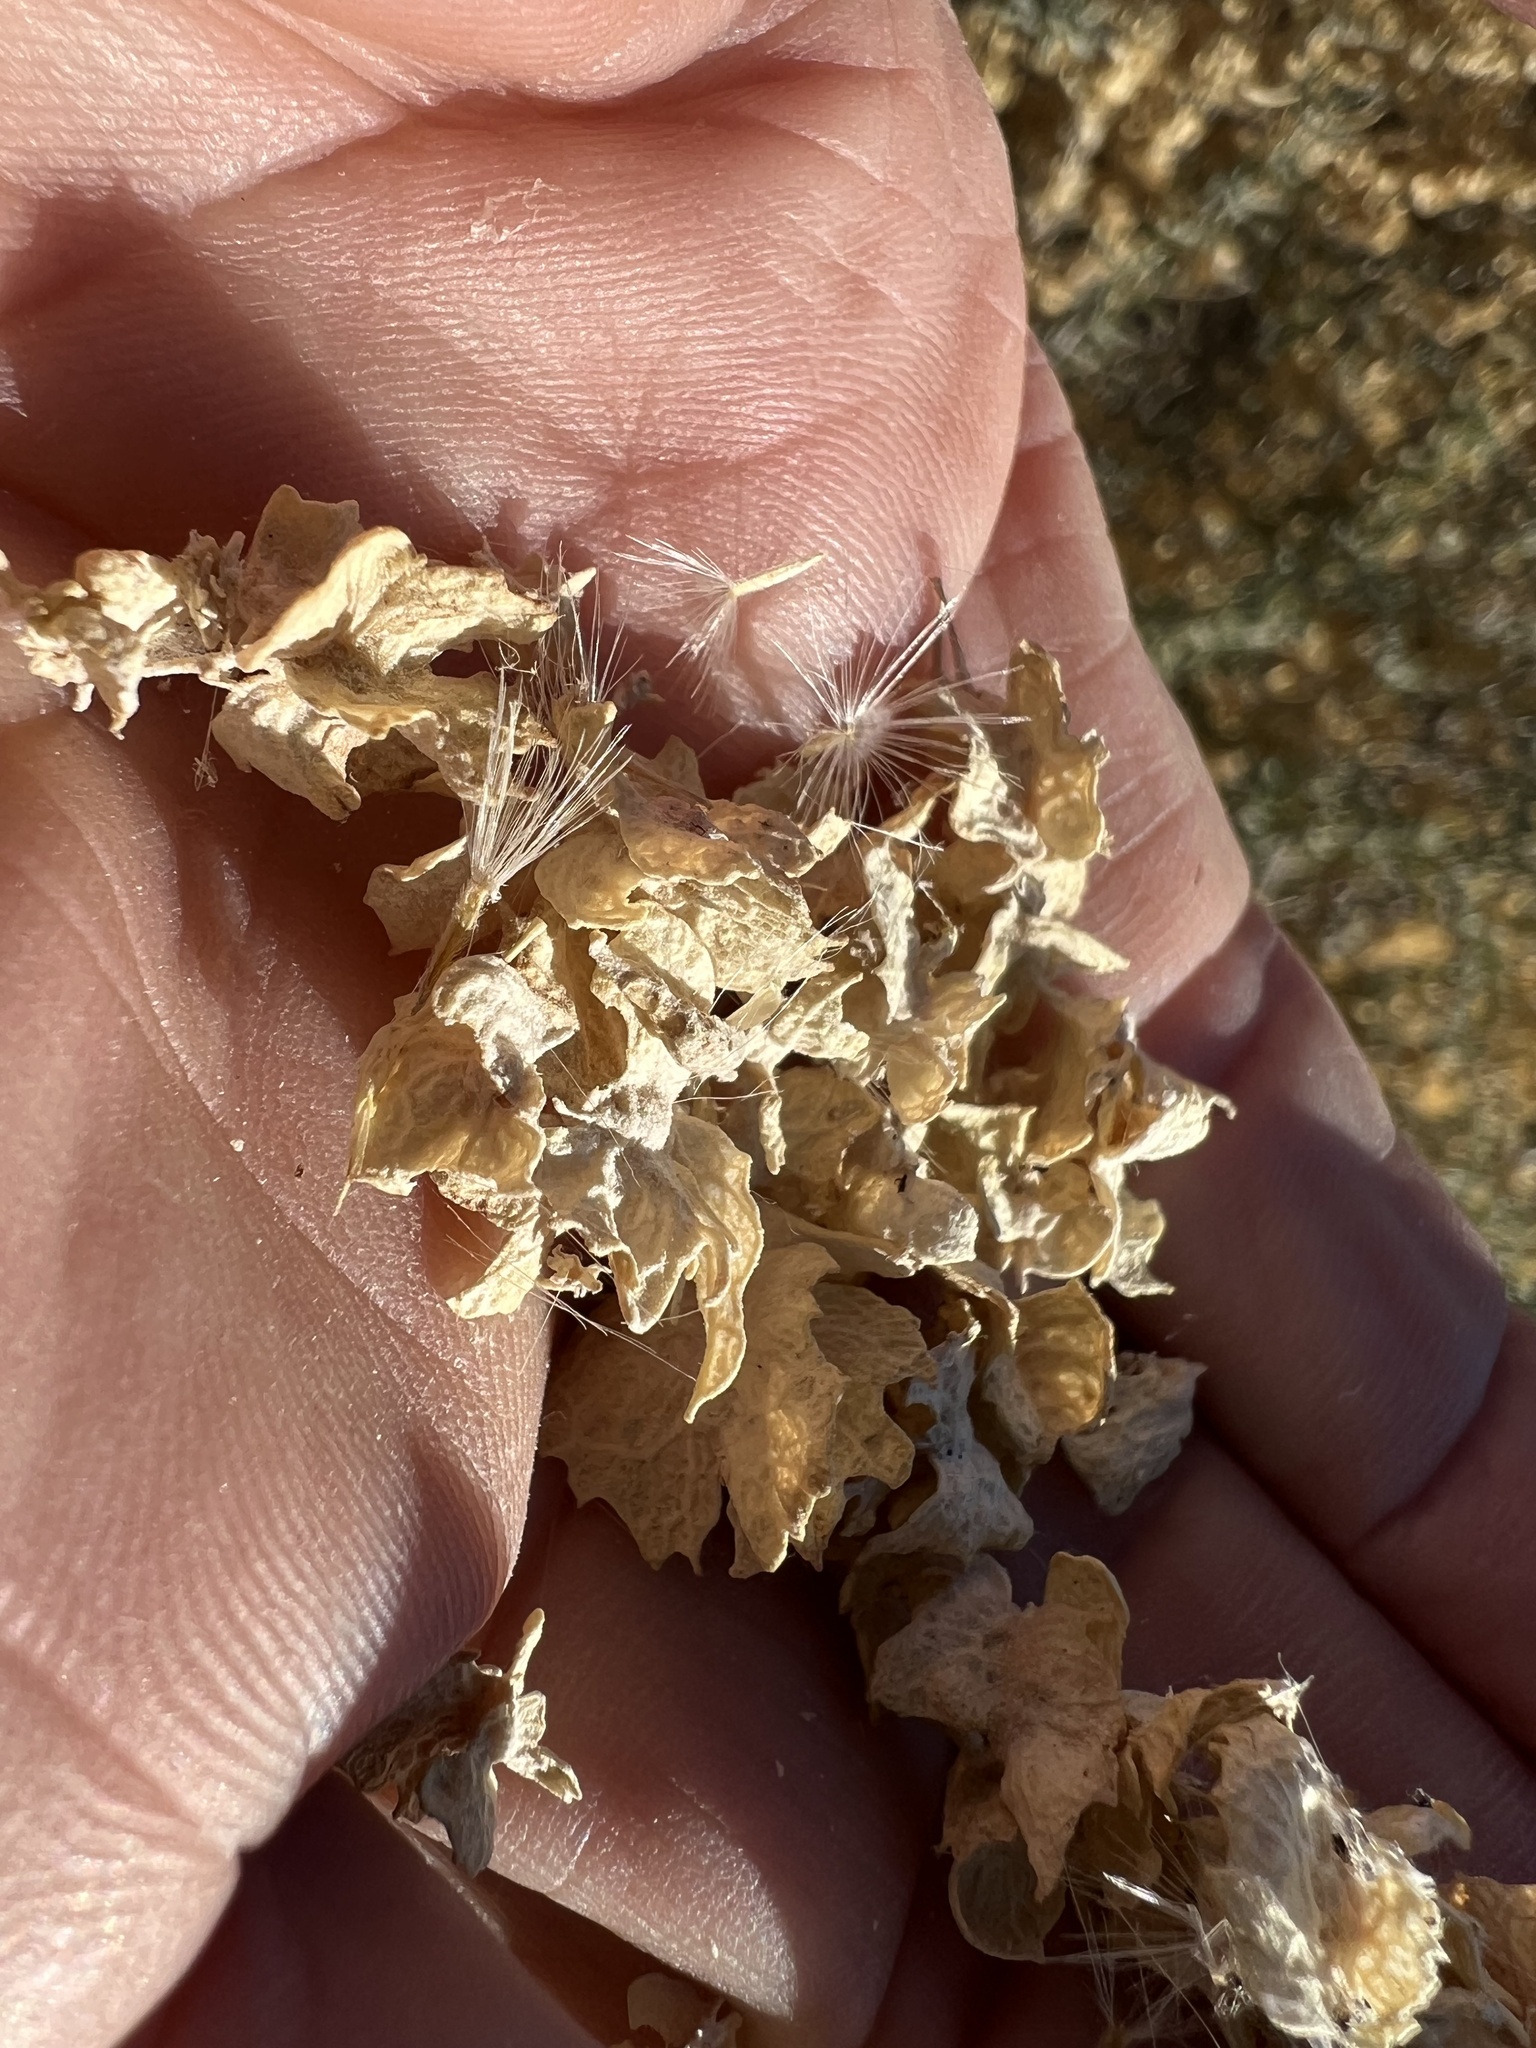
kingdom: Plantae
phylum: Tracheophyta
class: Magnoliopsida
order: Caryophyllales
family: Amaranthaceae
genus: Atriplex
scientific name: Atriplex canescens
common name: Four-wing saltbush
